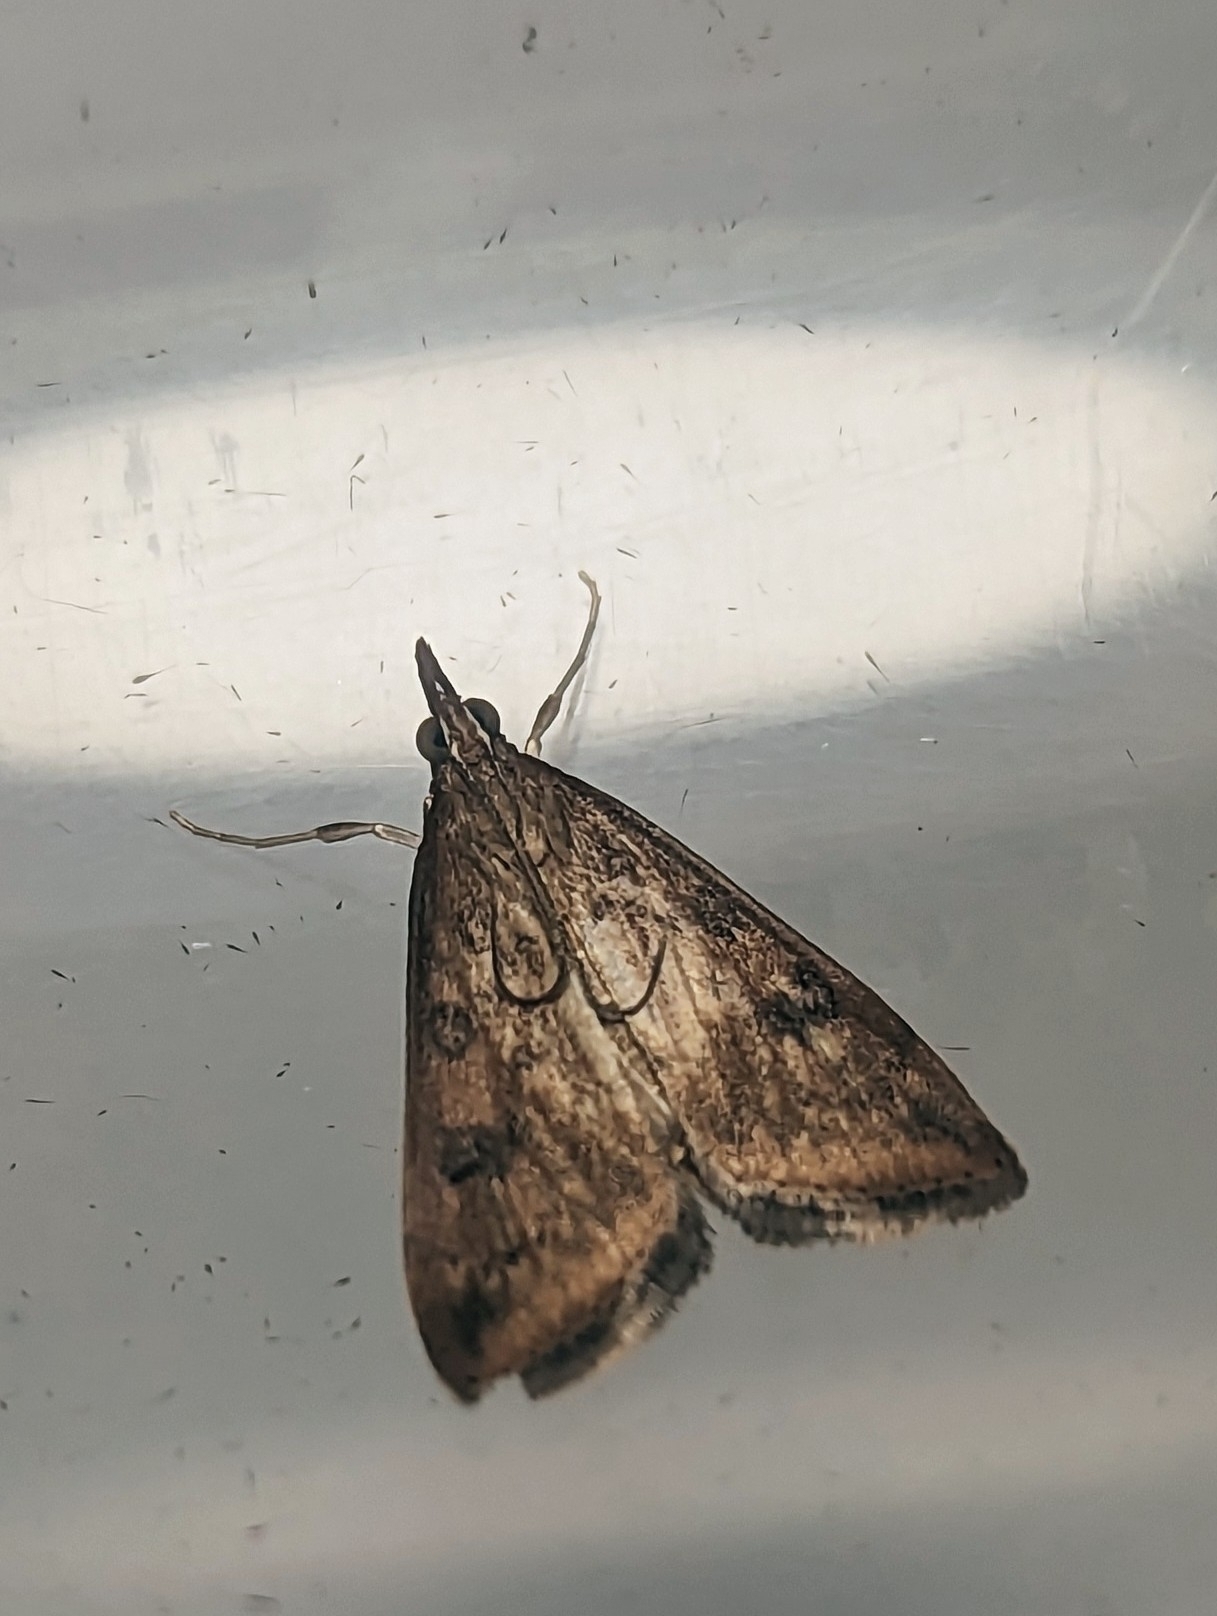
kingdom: Animalia
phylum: Arthropoda
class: Insecta
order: Lepidoptera
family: Crambidae
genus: Udea
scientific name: Udea ferrugalis
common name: Rusty dot
